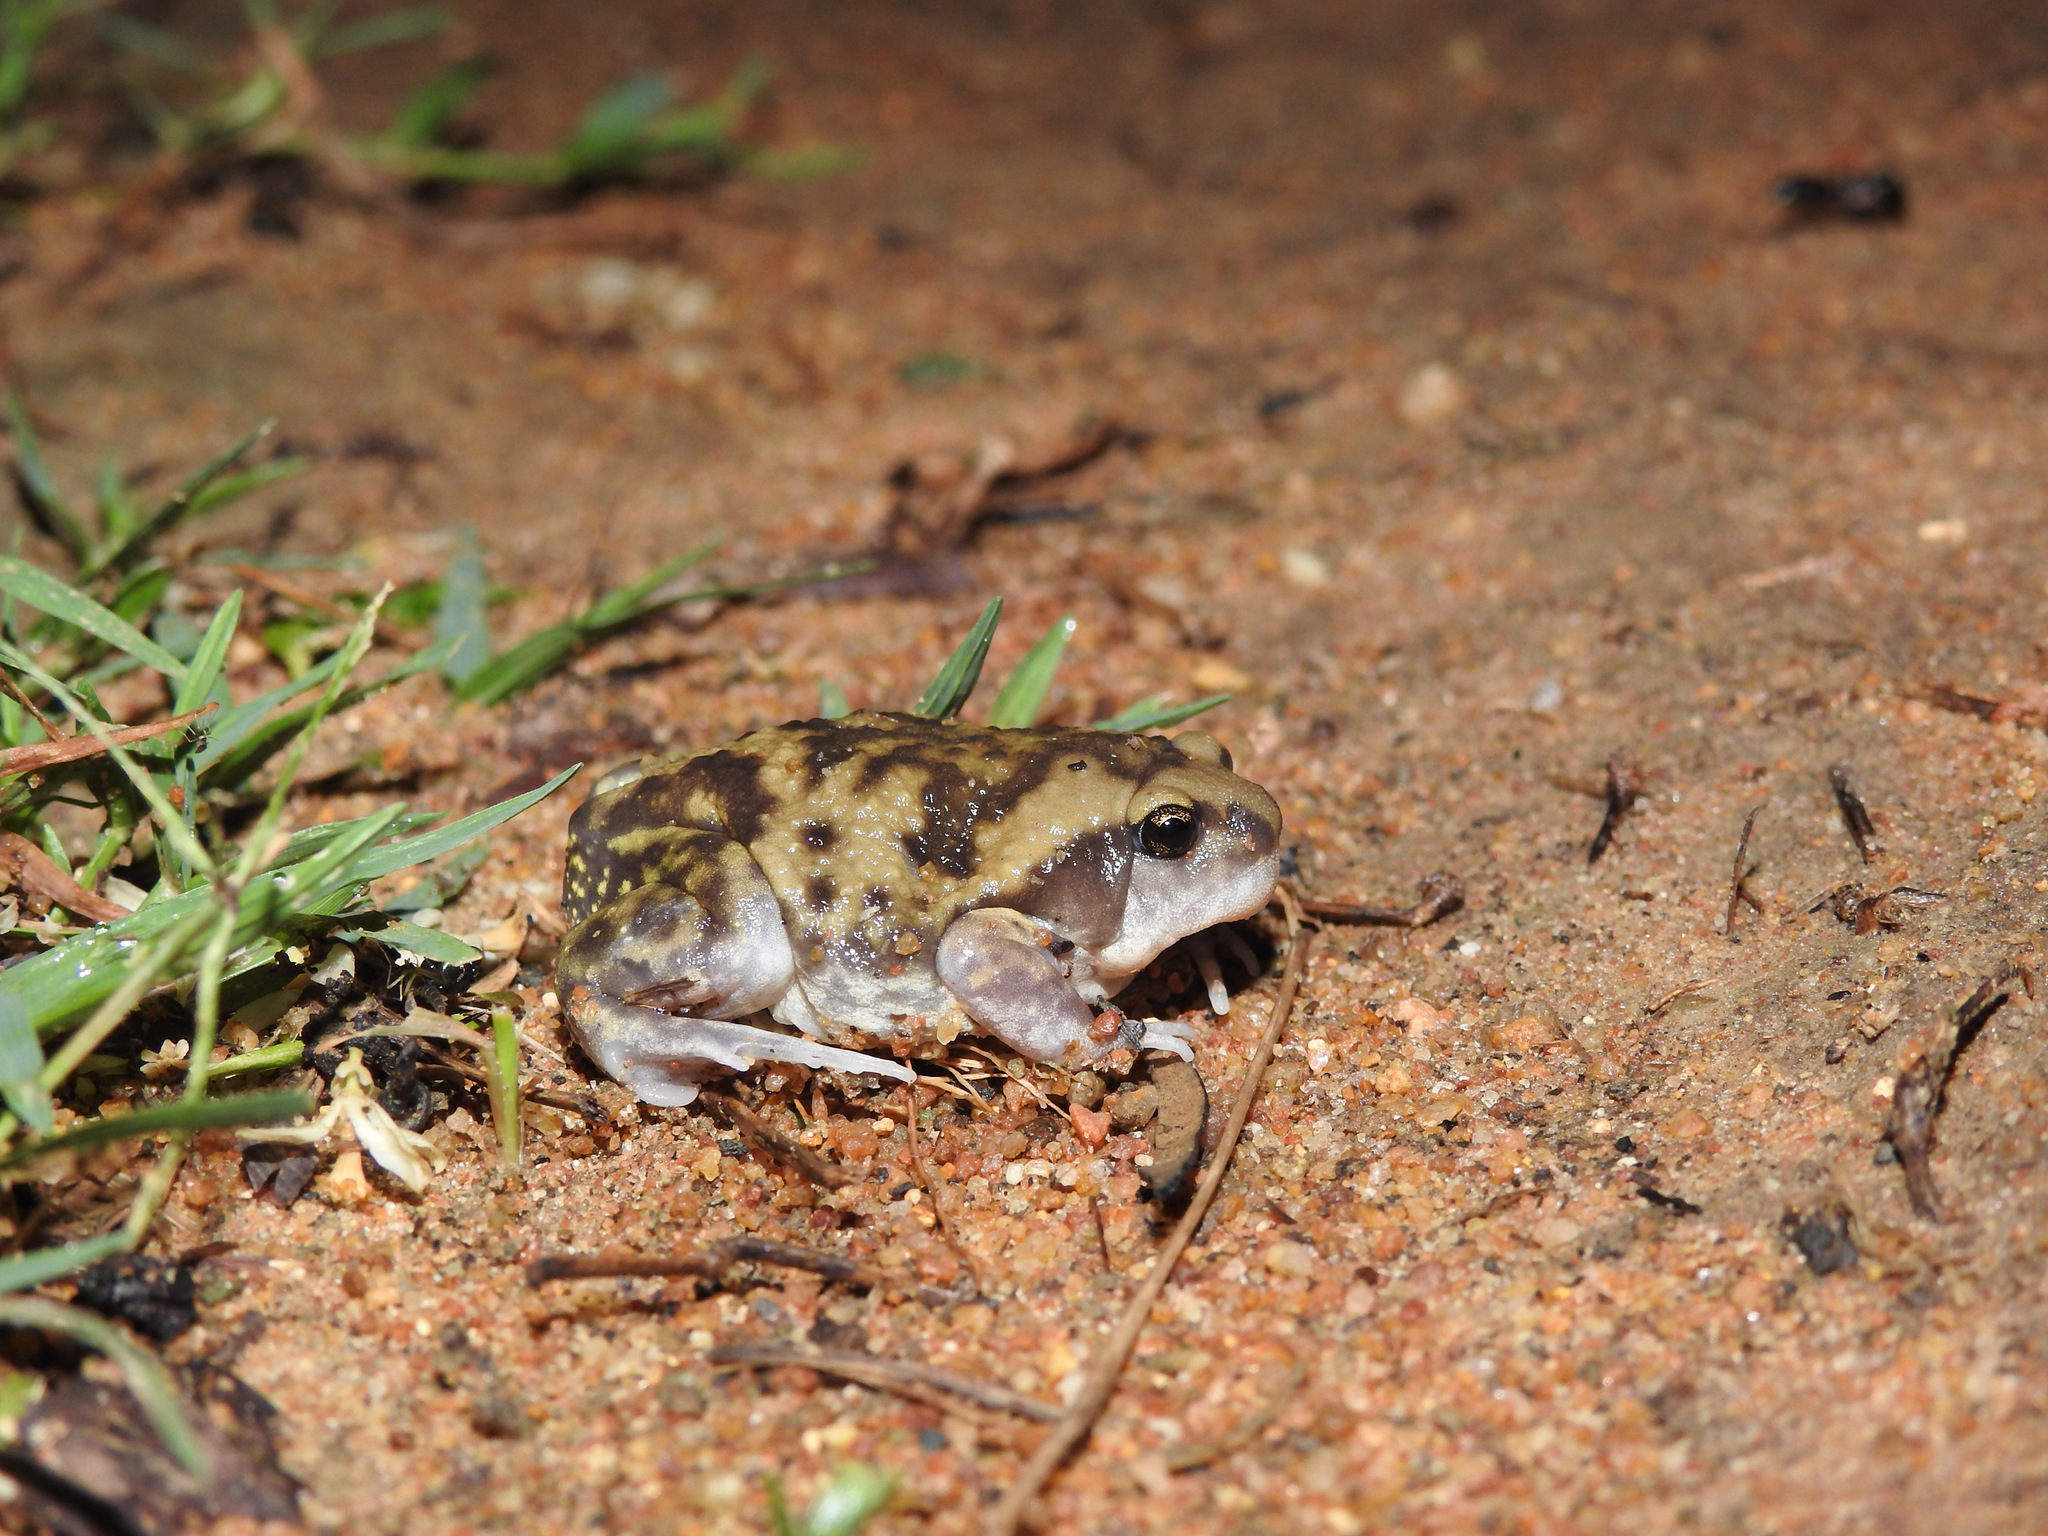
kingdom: Animalia
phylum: Chordata
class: Amphibia
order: Anura
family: Microhylidae
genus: Uperodon
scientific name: Uperodon systoma
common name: Balloon frog
